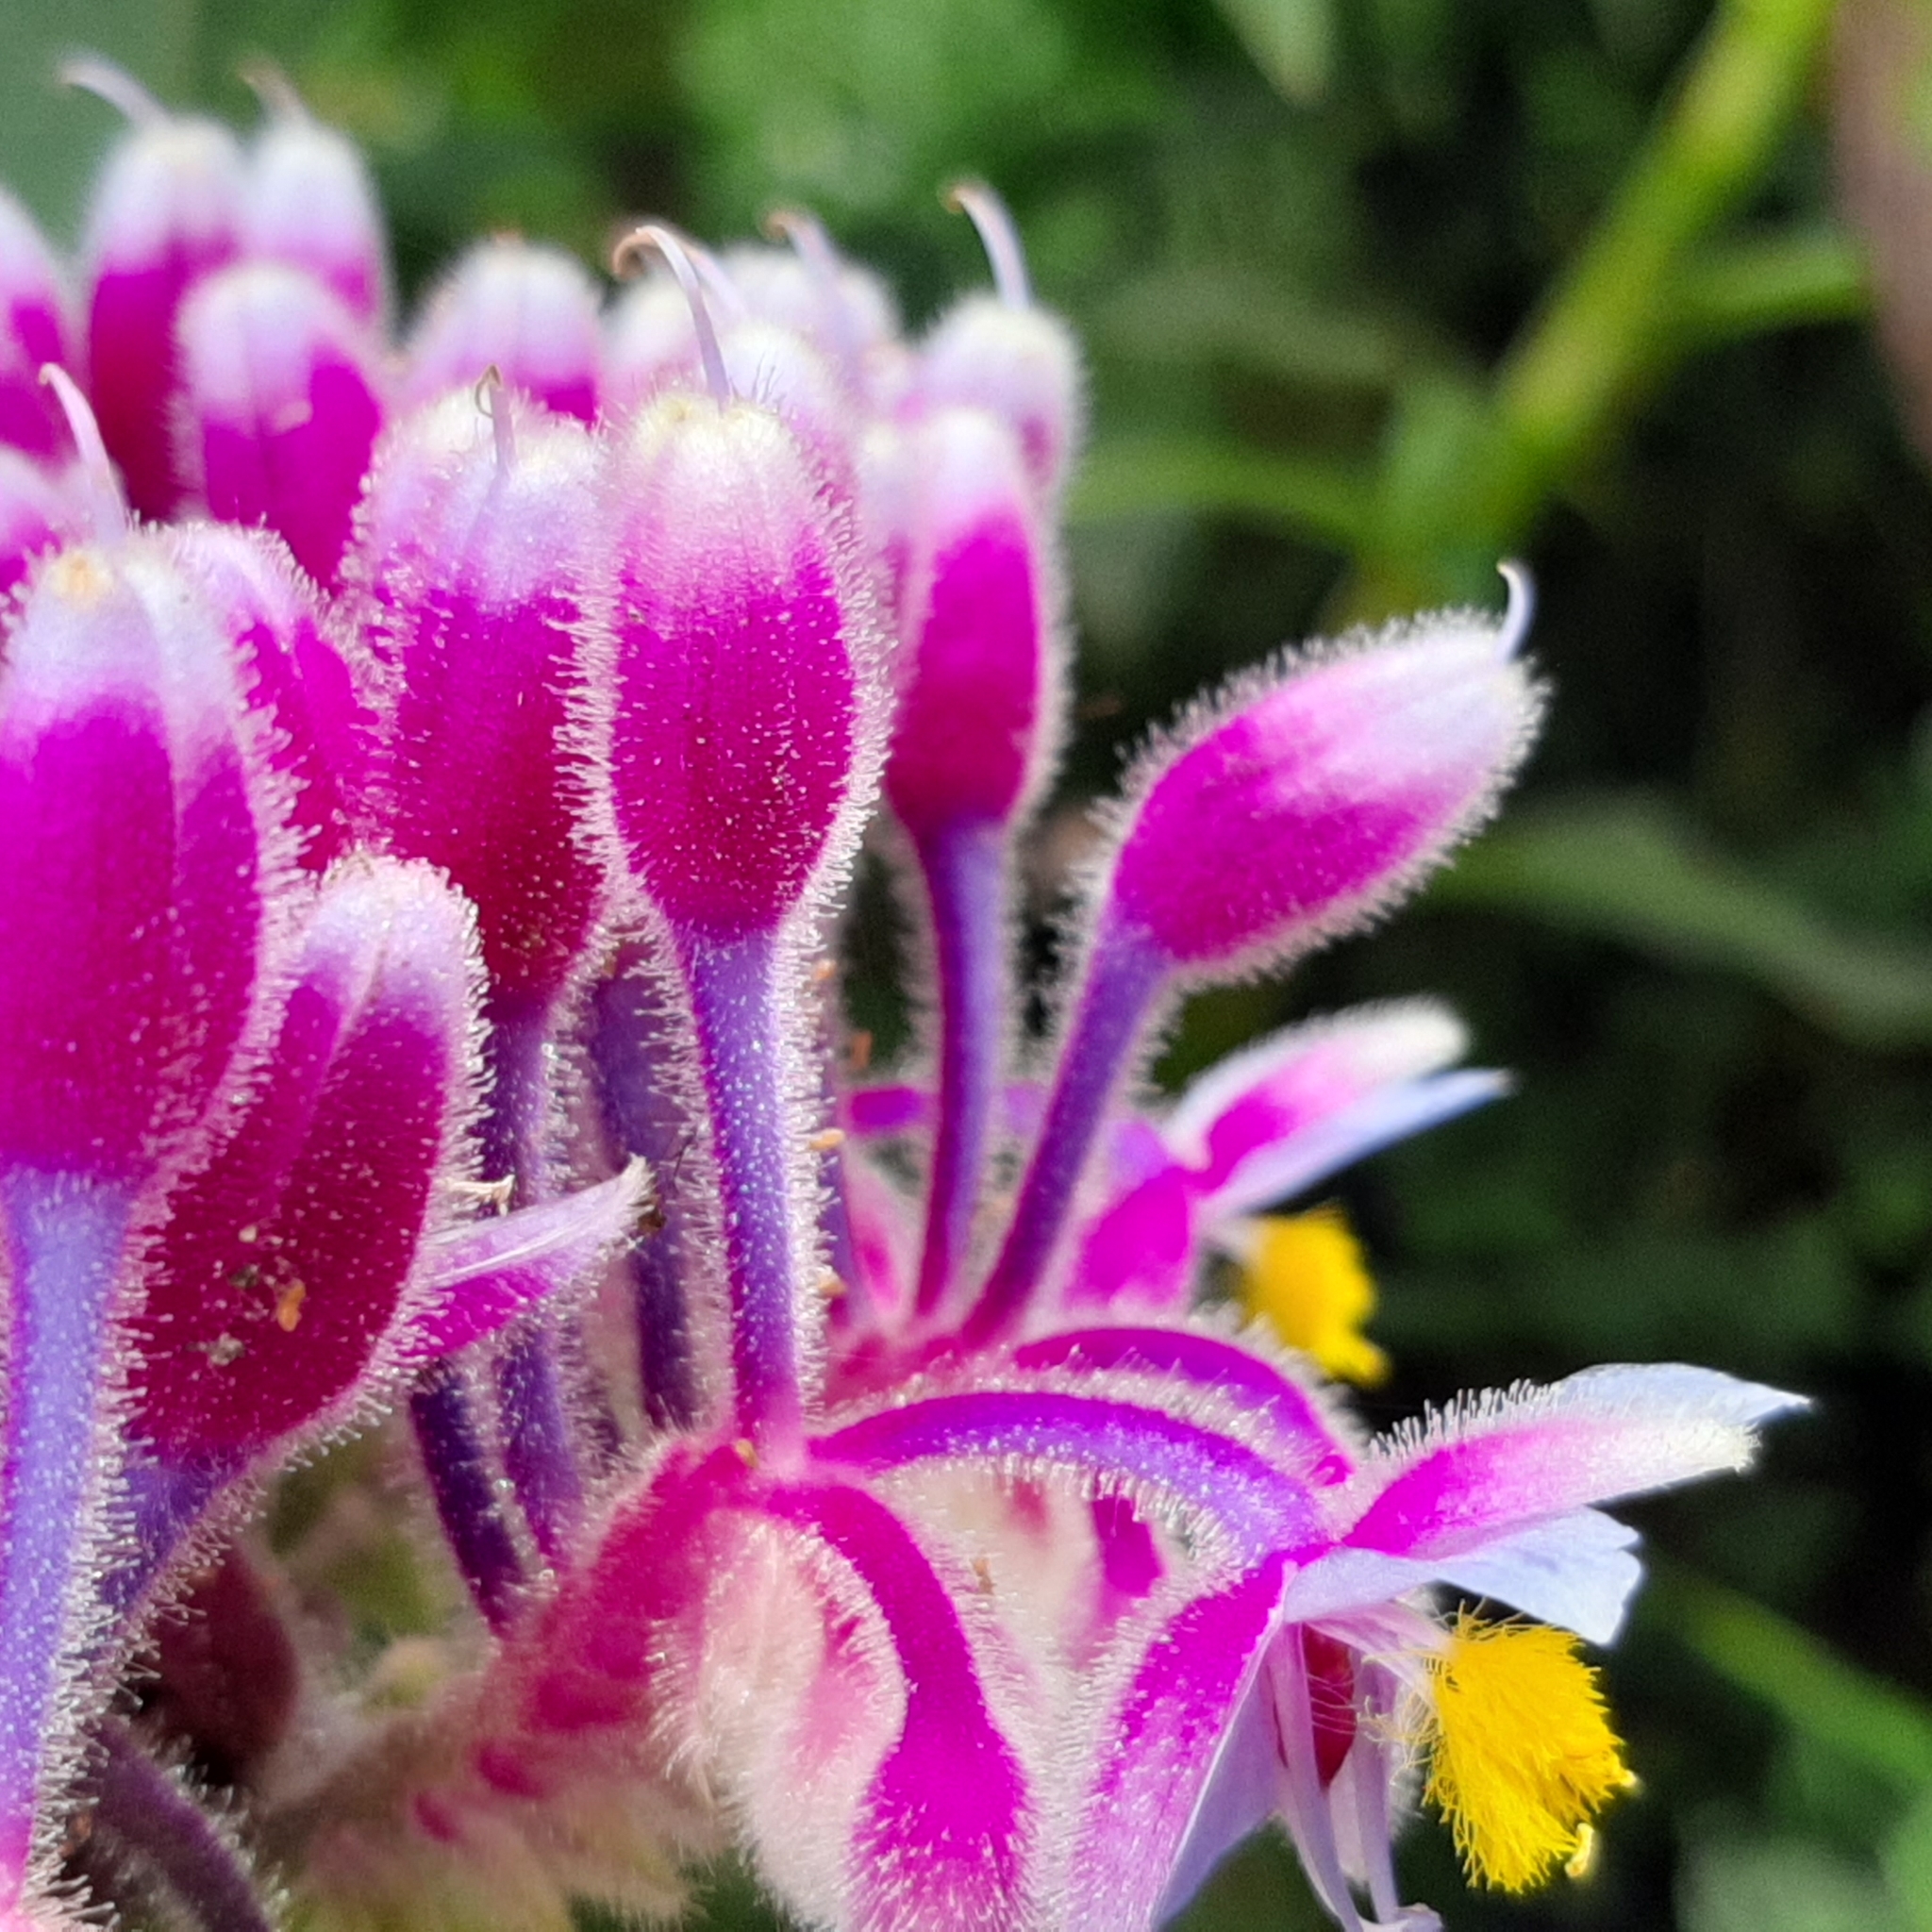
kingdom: Plantae
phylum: Tracheophyta
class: Liliopsida
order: Commelinales
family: Commelinaceae
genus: Tinantia
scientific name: Tinantia standleyi
